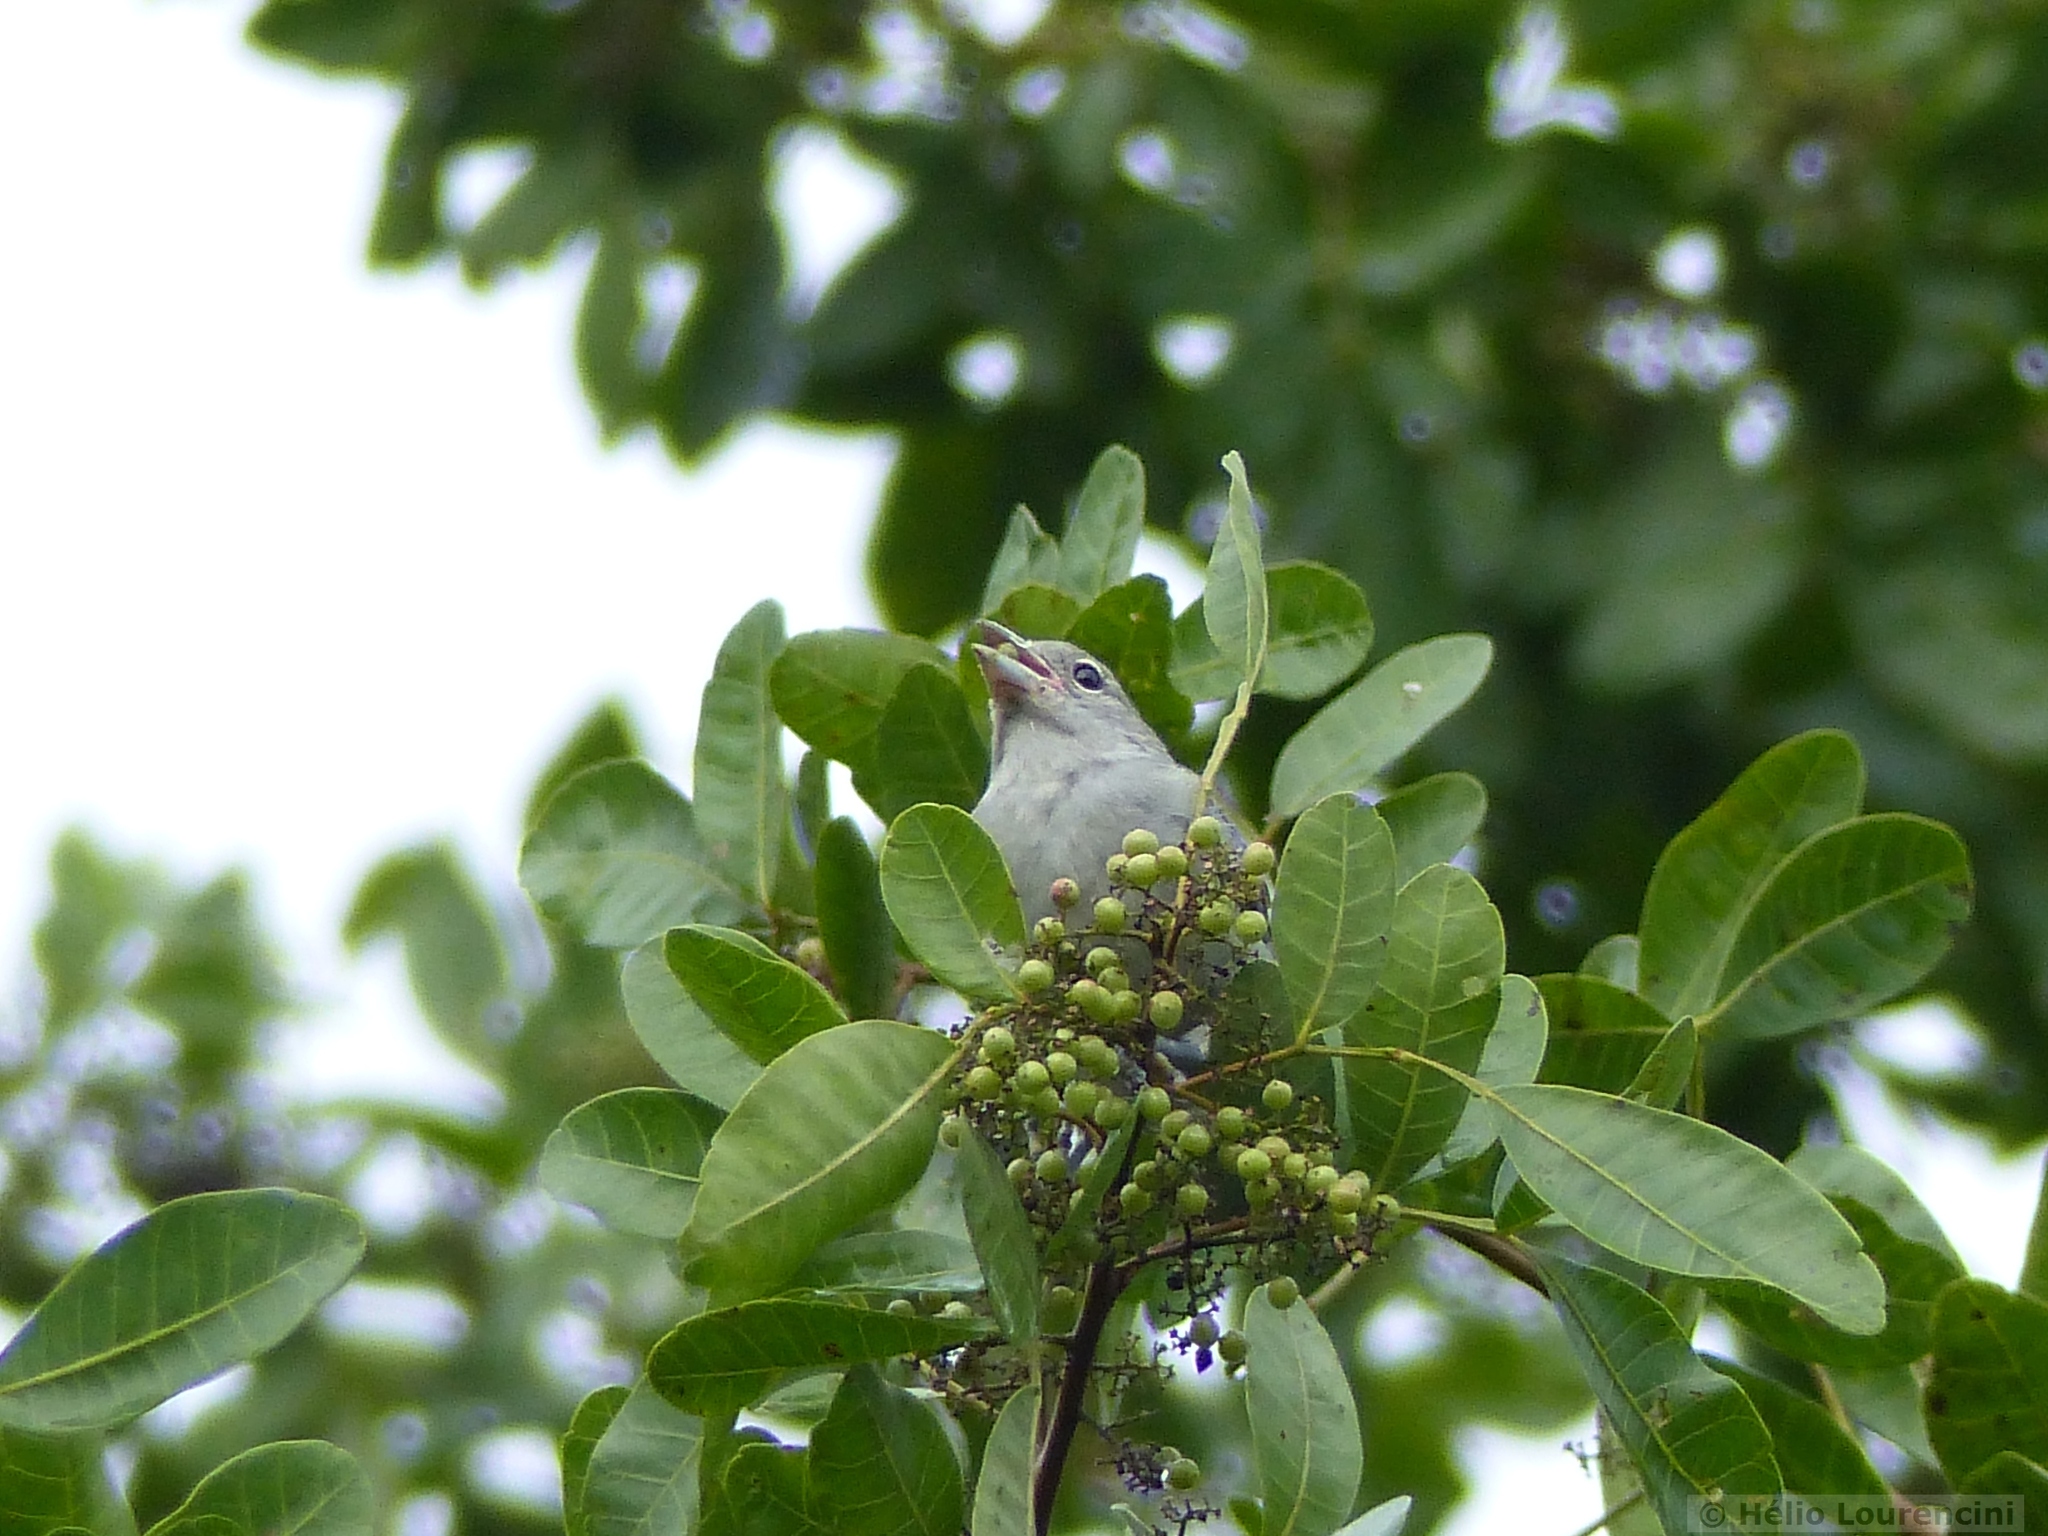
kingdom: Animalia
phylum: Chordata
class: Aves
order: Passeriformes
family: Thraupidae
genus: Thraupis
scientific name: Thraupis sayaca
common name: Sayaca tanager
